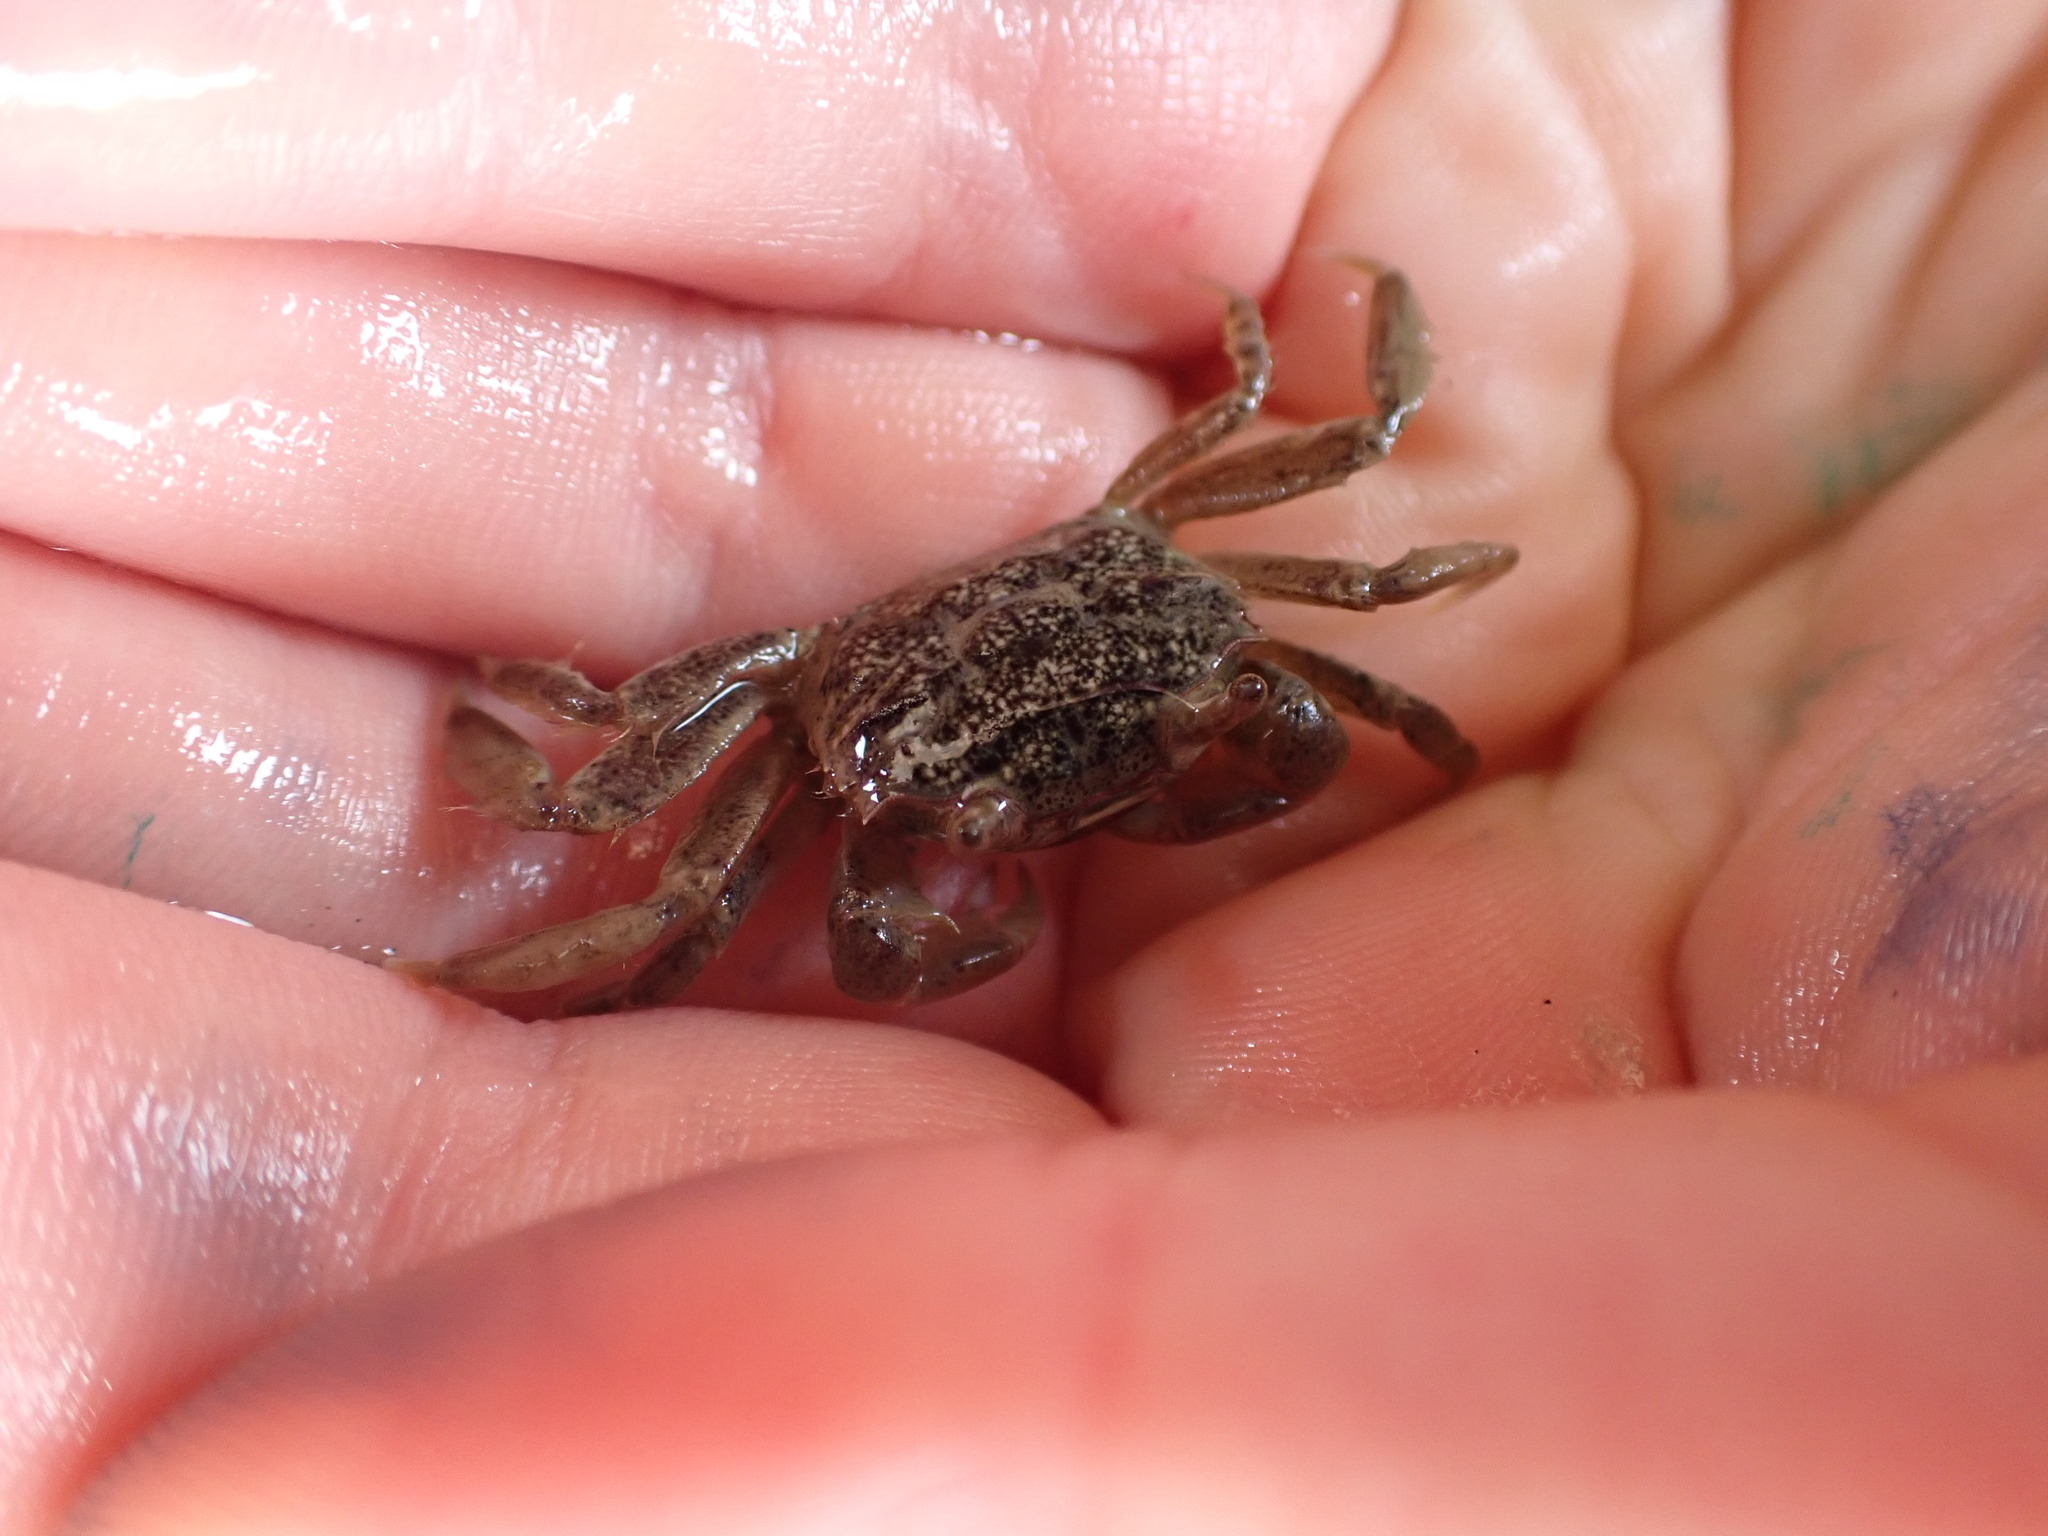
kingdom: Animalia
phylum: Arthropoda
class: Malacostraca
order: Decapoda
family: Varunidae
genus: Austrohelice
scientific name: Austrohelice crassa
